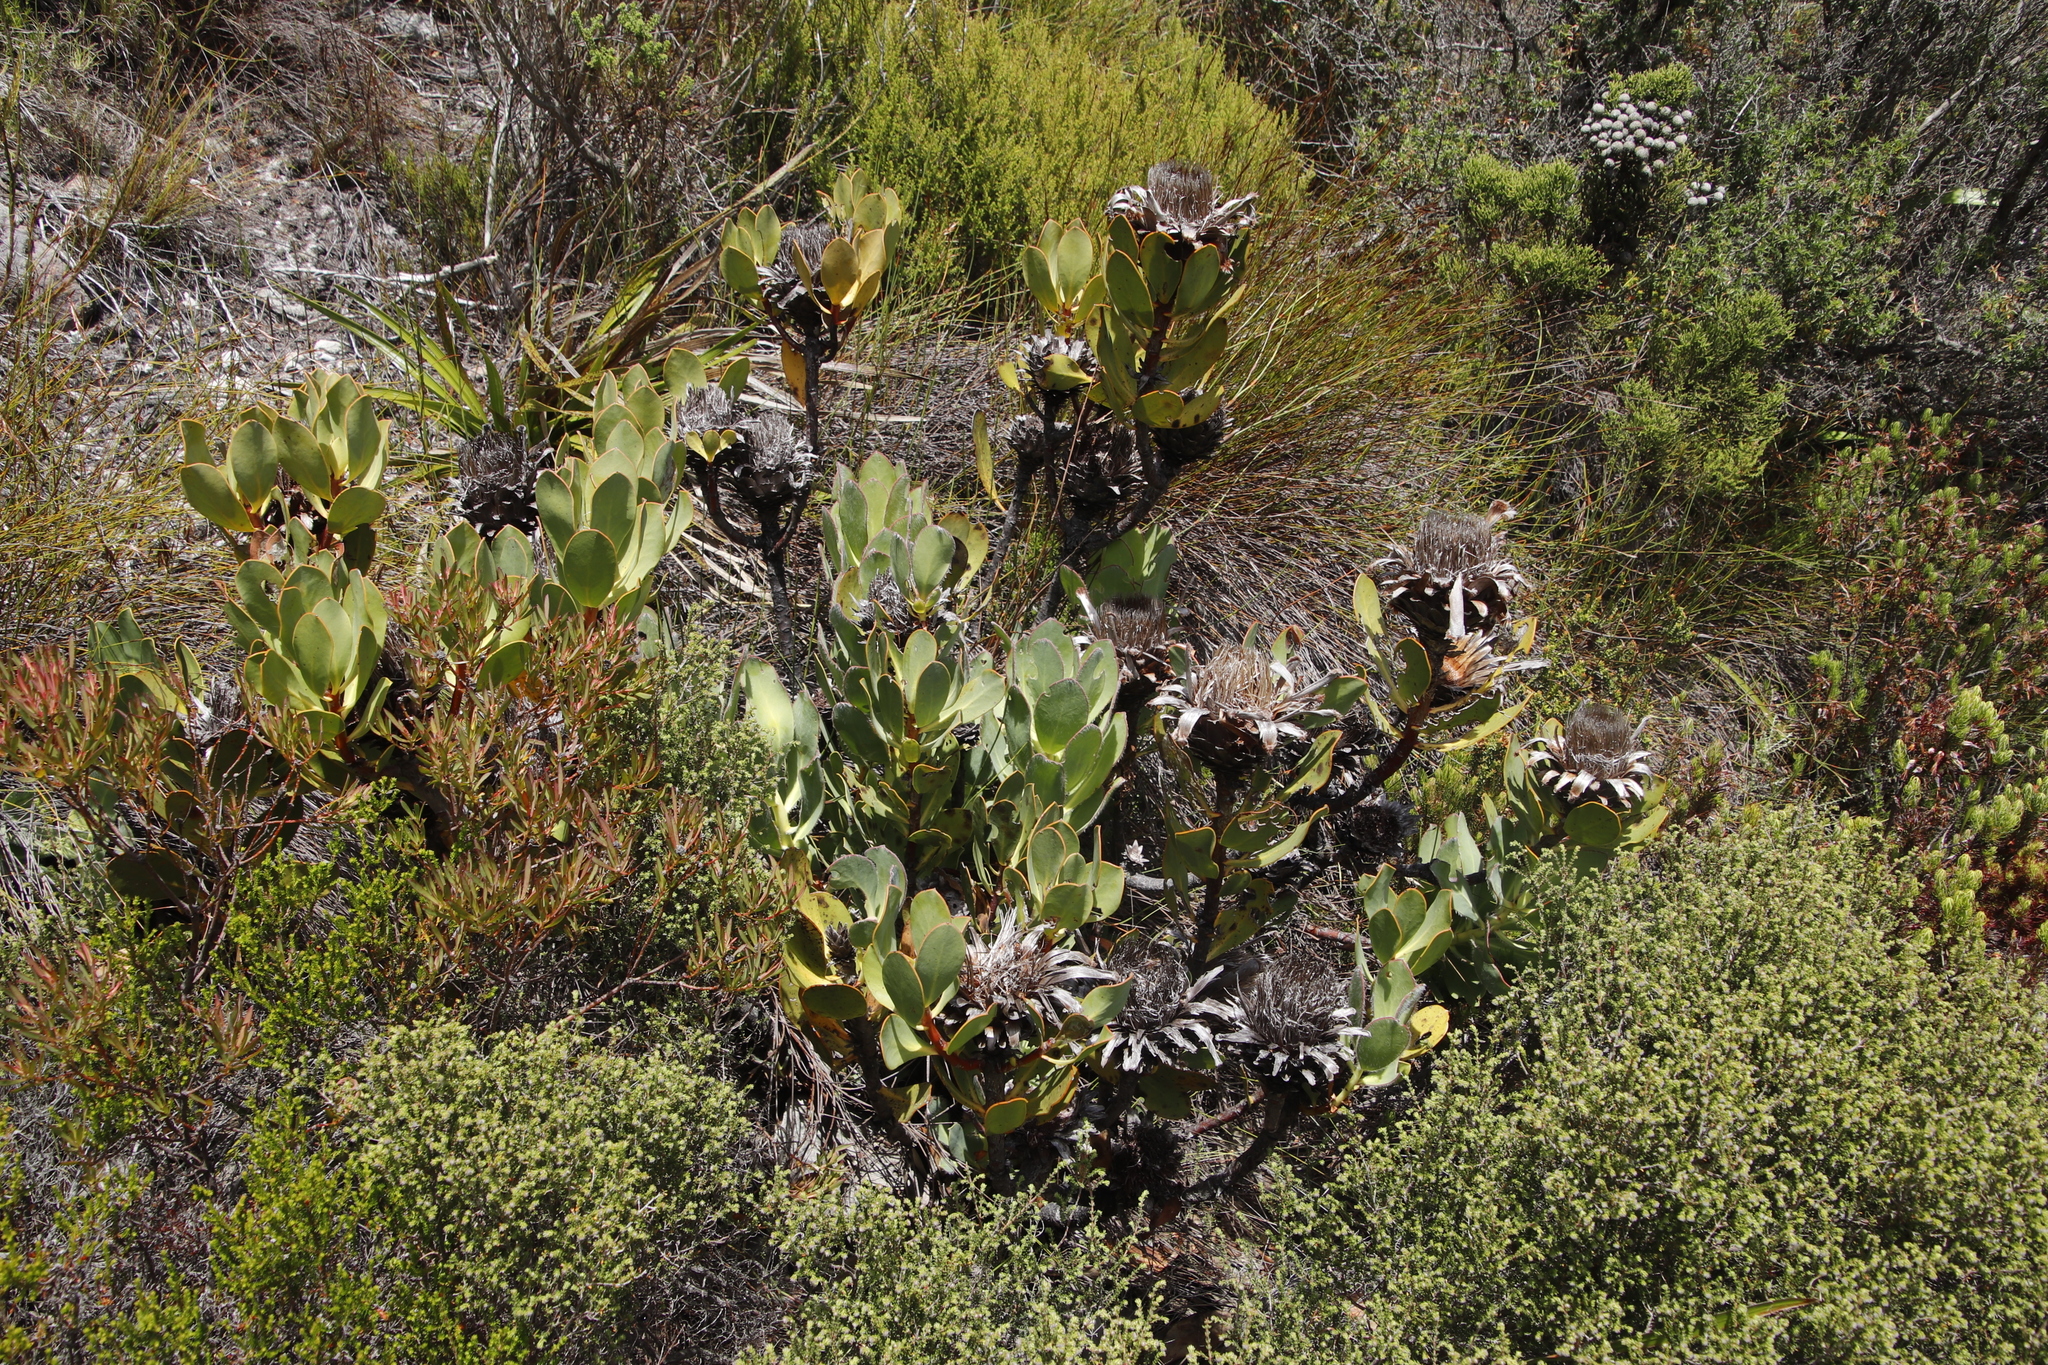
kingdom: Plantae
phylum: Tracheophyta
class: Magnoliopsida
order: Proteales
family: Proteaceae
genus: Protea
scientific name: Protea speciosa
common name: Brown-beard sugarbush
